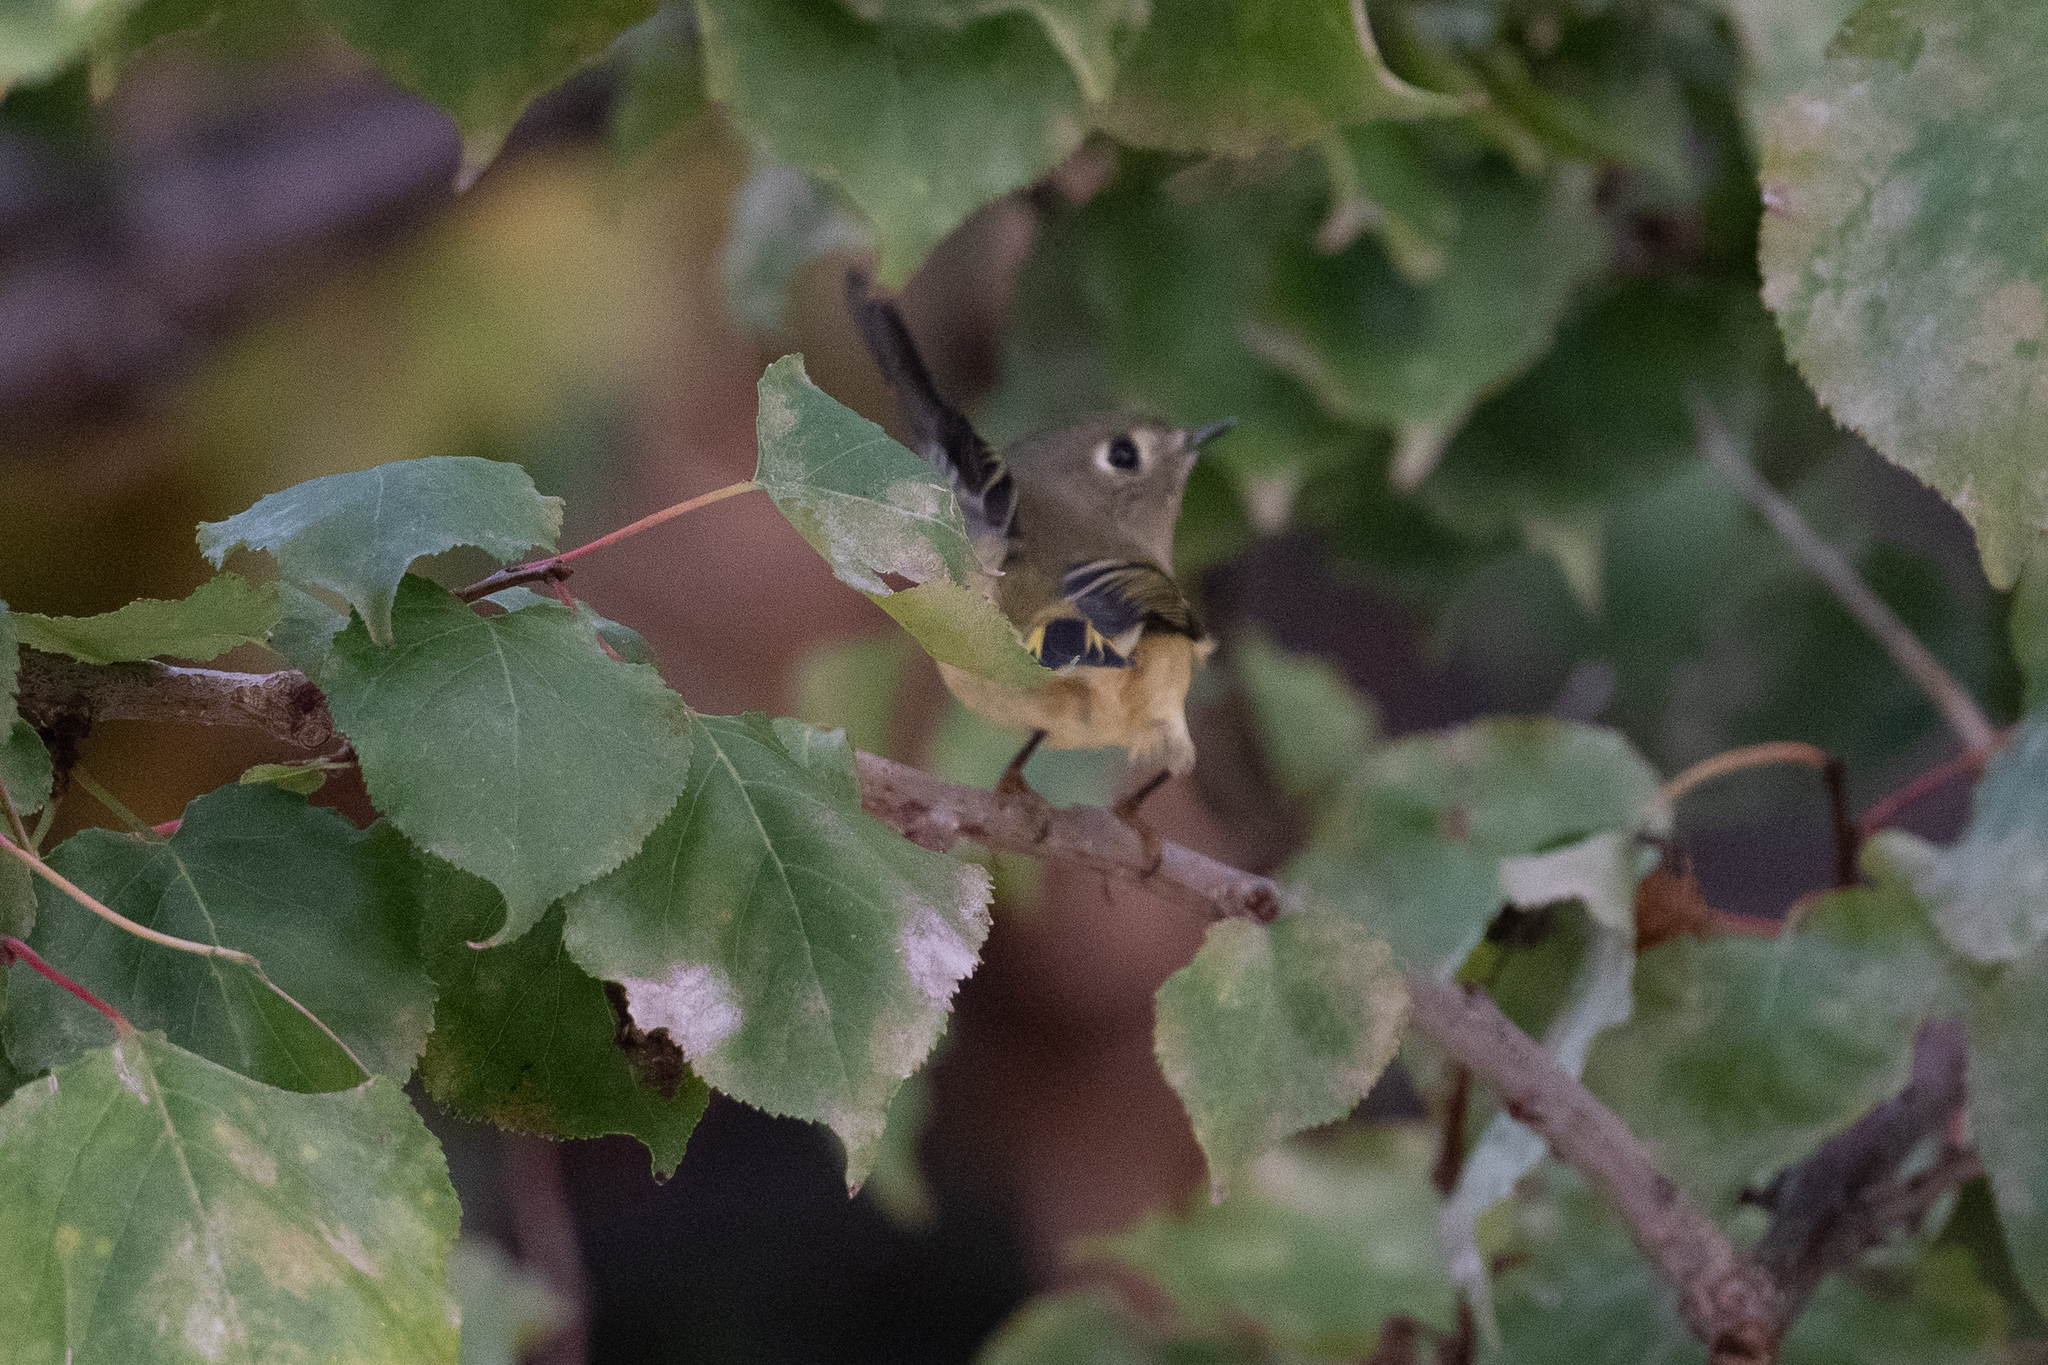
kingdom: Animalia
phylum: Chordata
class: Aves
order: Passeriformes
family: Regulidae
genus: Regulus
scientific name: Regulus calendula
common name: Ruby-crowned kinglet
